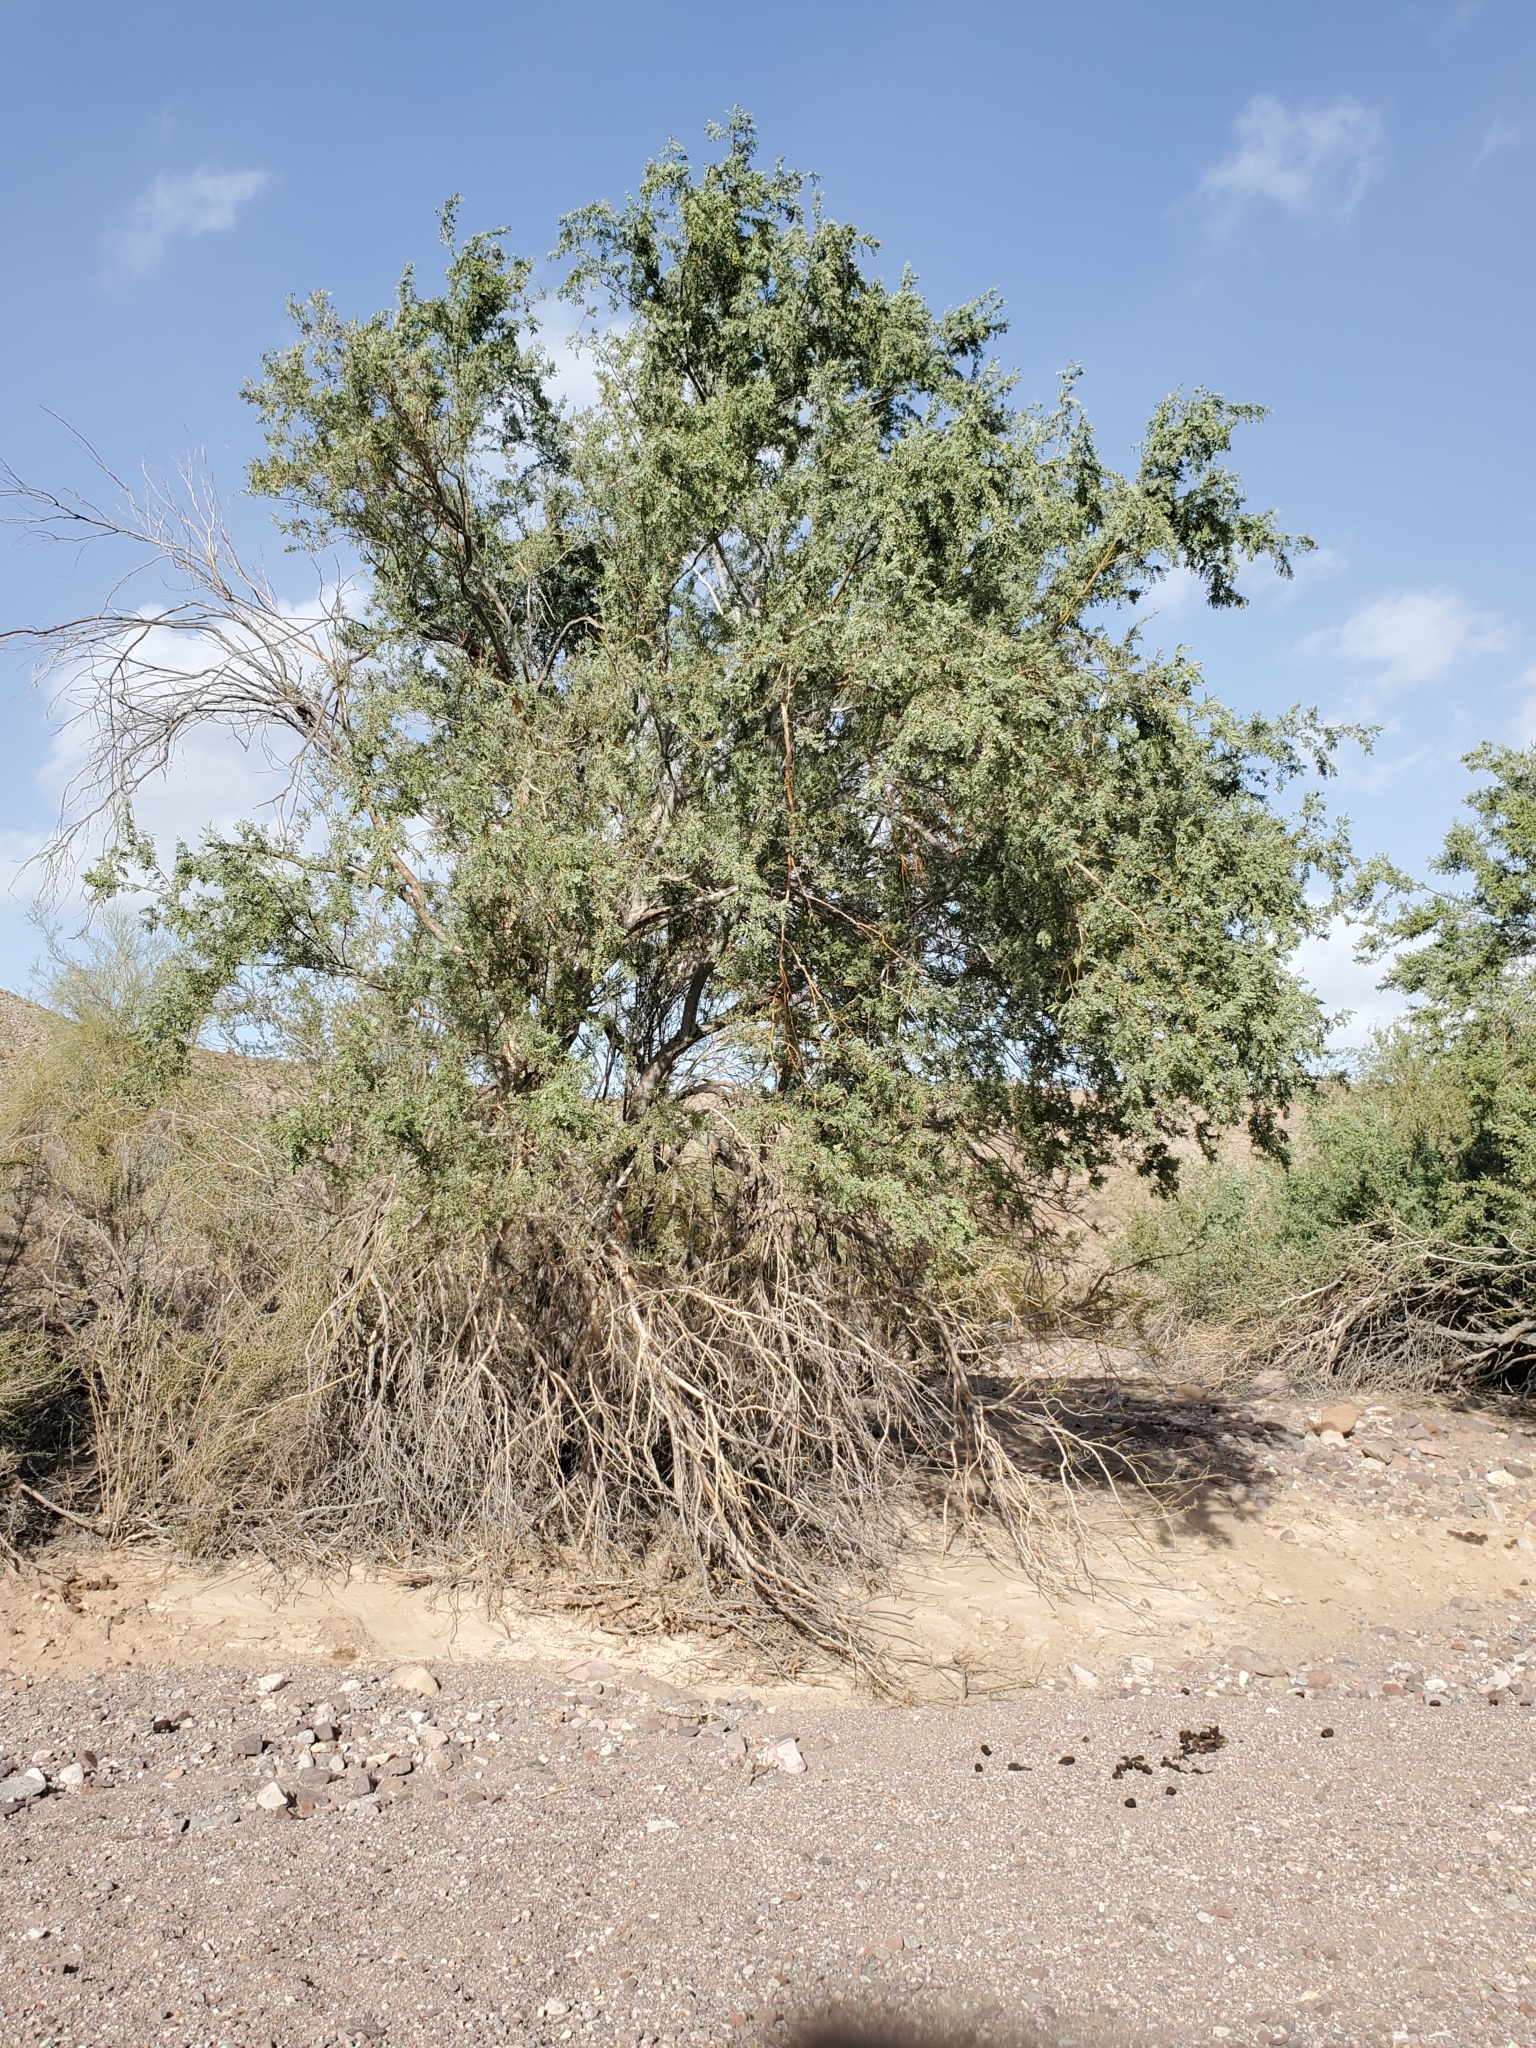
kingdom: Plantae
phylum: Tracheophyta
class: Magnoliopsida
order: Fabales
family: Fabaceae
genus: Olneya
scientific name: Olneya tesota
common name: Desert ironwood
